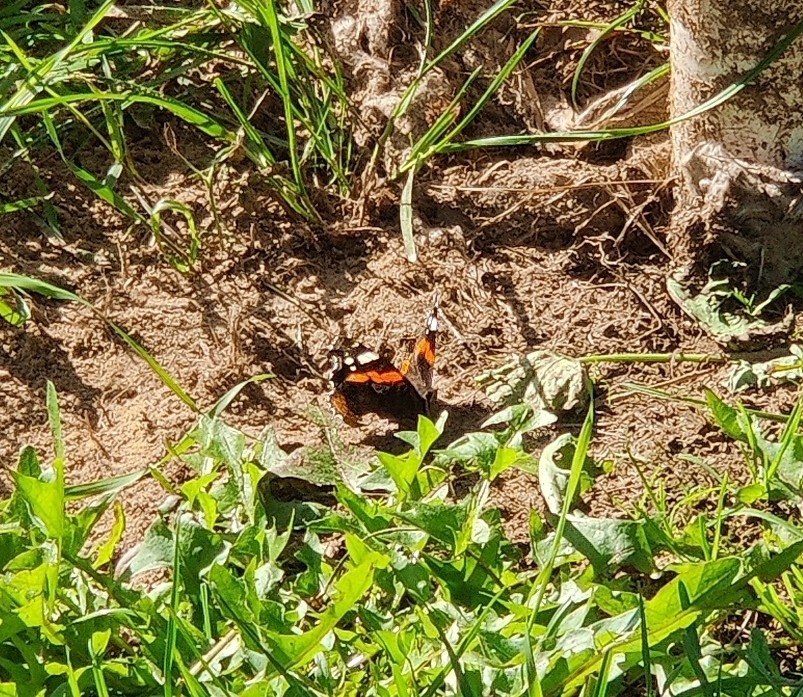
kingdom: Animalia
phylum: Arthropoda
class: Insecta
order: Lepidoptera
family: Nymphalidae
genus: Vanessa
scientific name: Vanessa atalanta
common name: Red admiral
